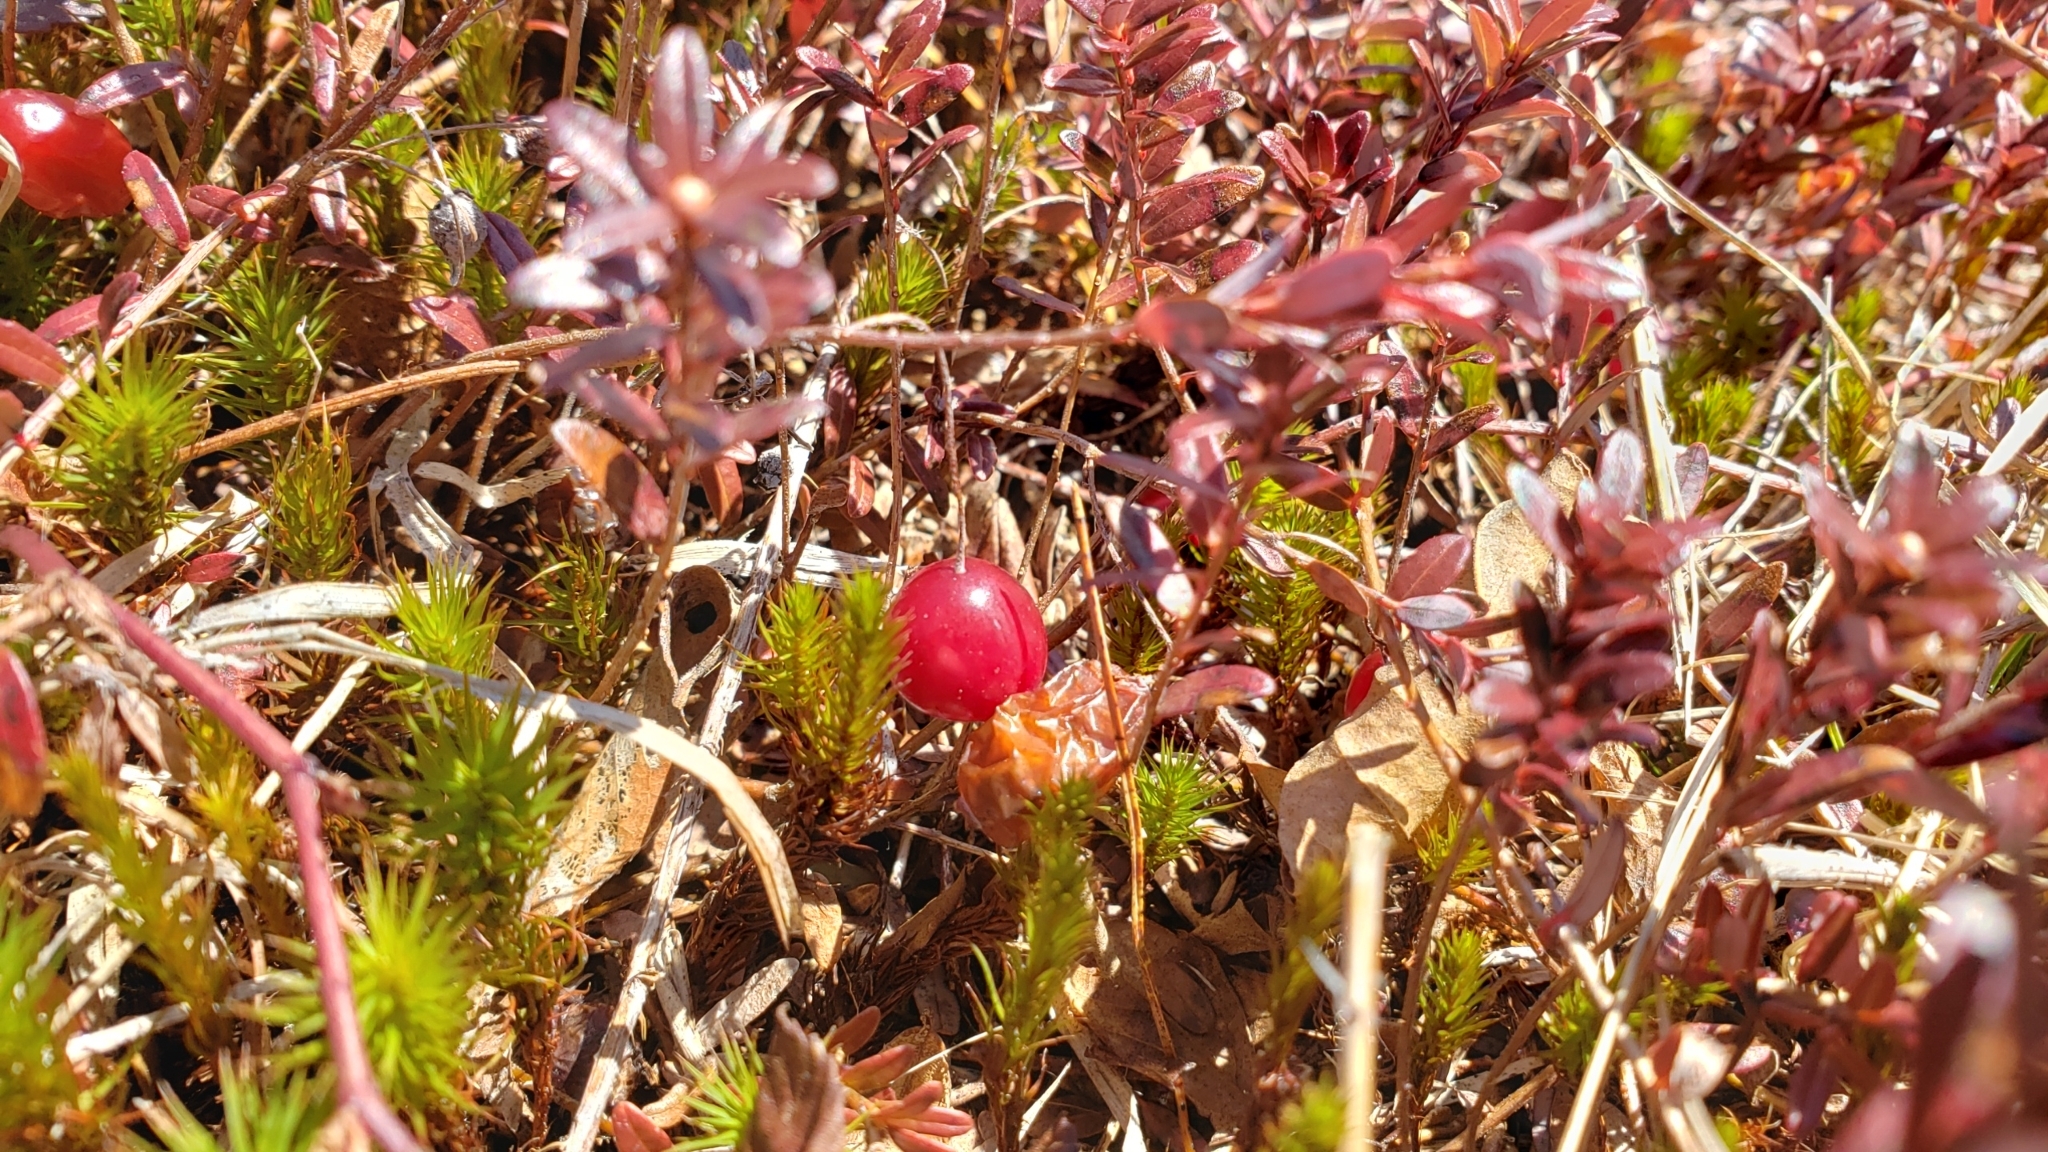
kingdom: Plantae
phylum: Tracheophyta
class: Magnoliopsida
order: Ericales
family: Ericaceae
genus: Vaccinium
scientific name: Vaccinium macrocarpon
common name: American cranberry
